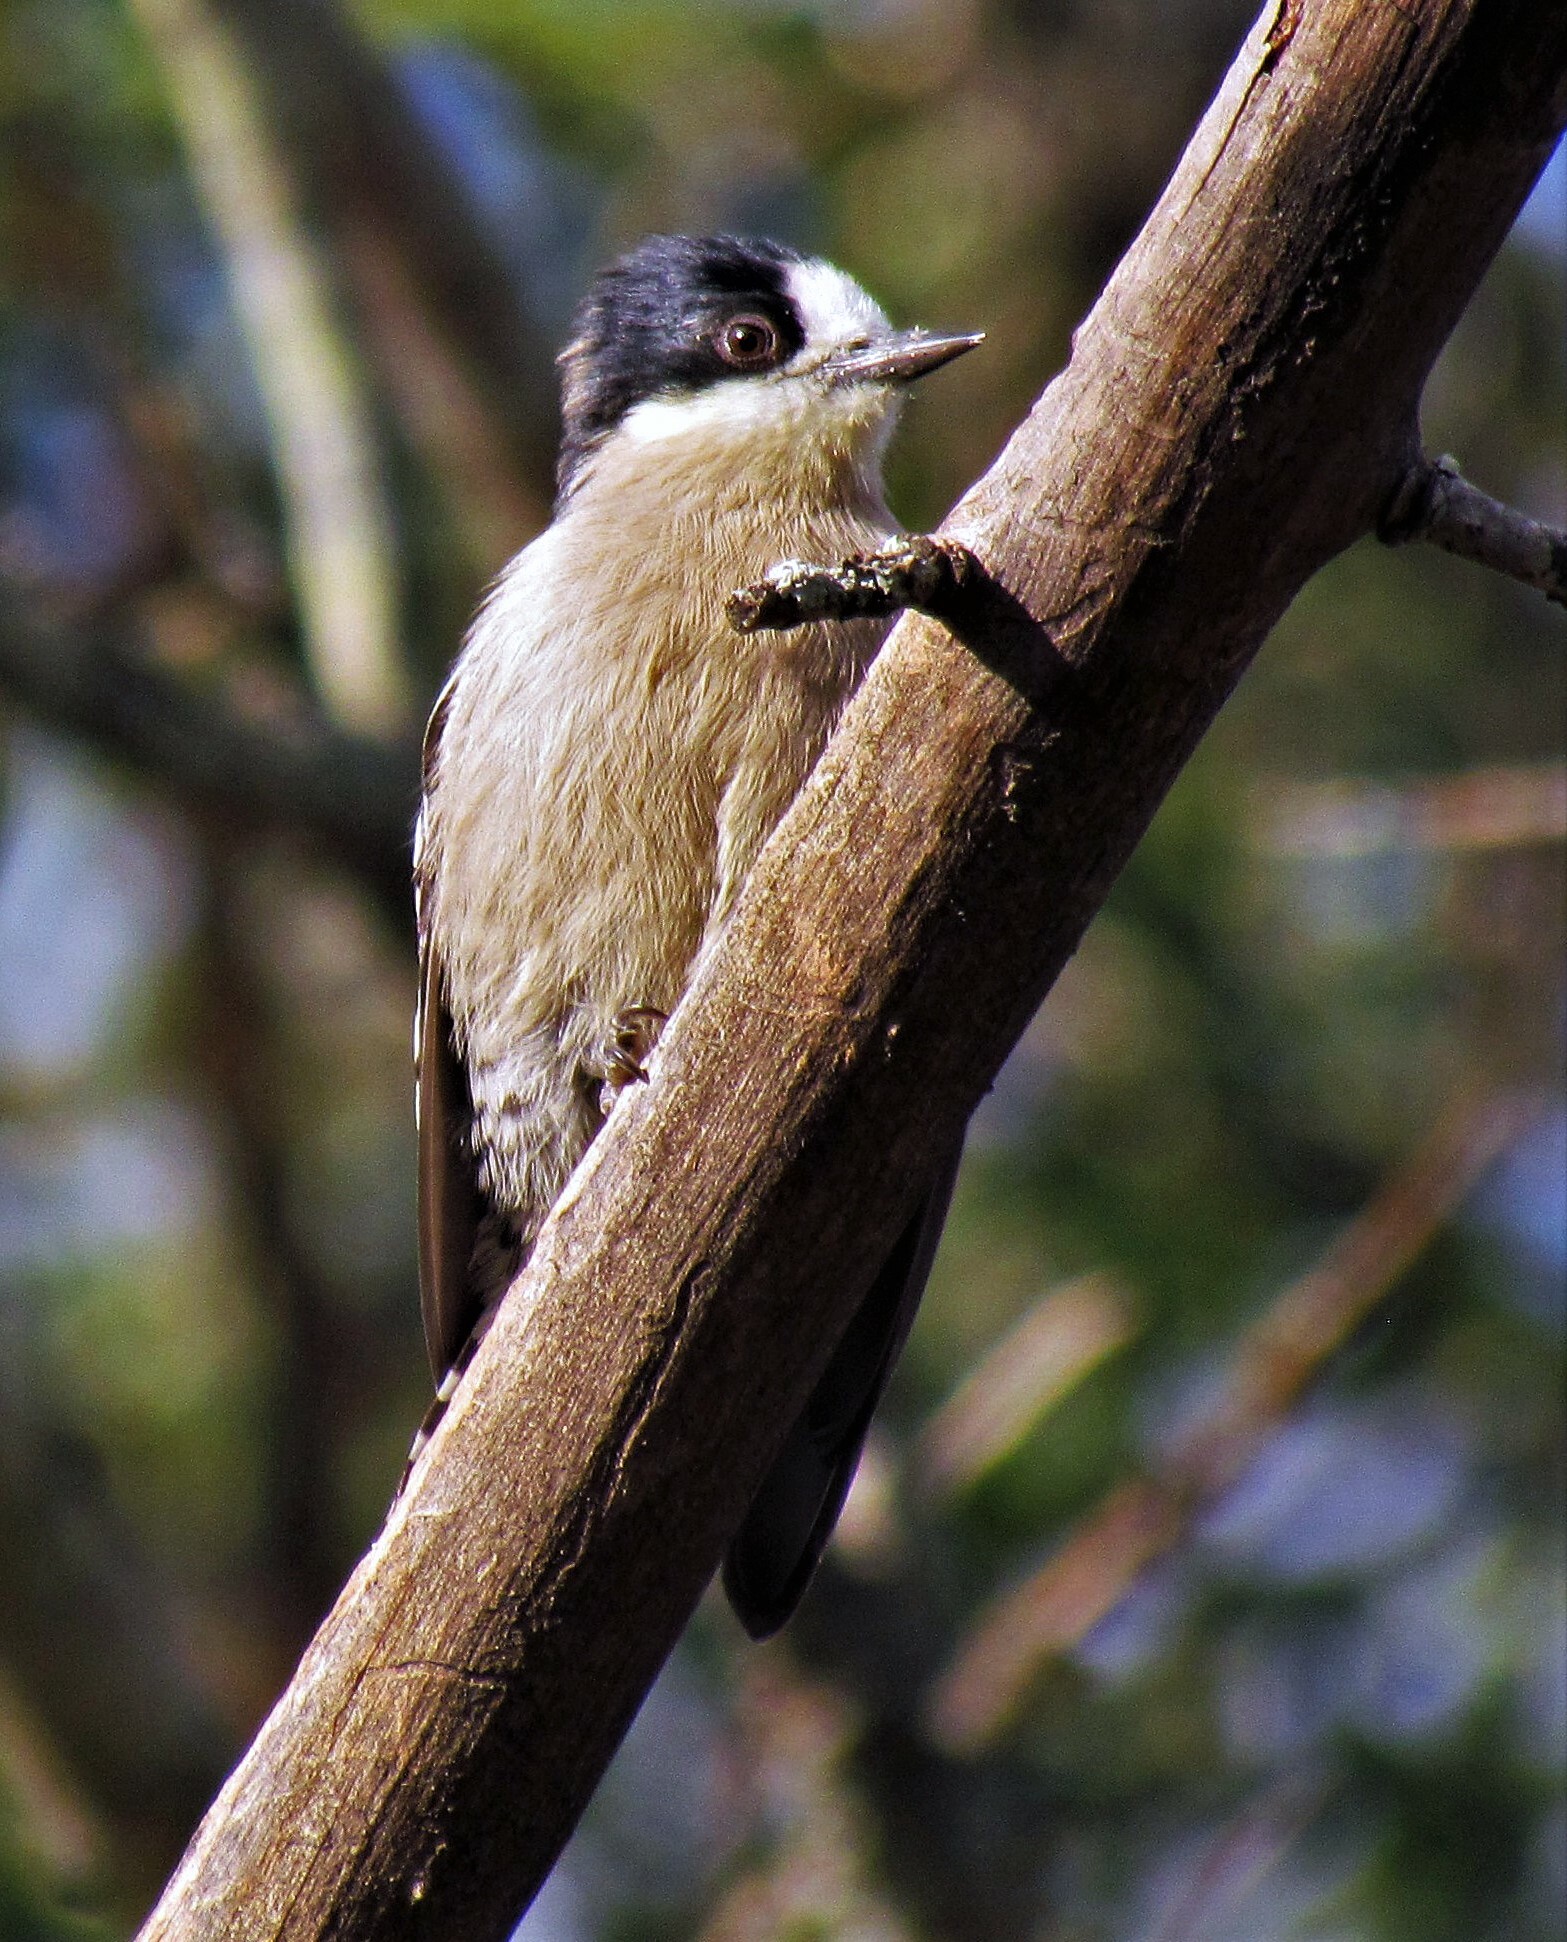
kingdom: Animalia
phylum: Chordata
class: Aves
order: Piciformes
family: Picidae
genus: Melanerpes
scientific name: Melanerpes cactorum
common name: White-fronted woodpecker
